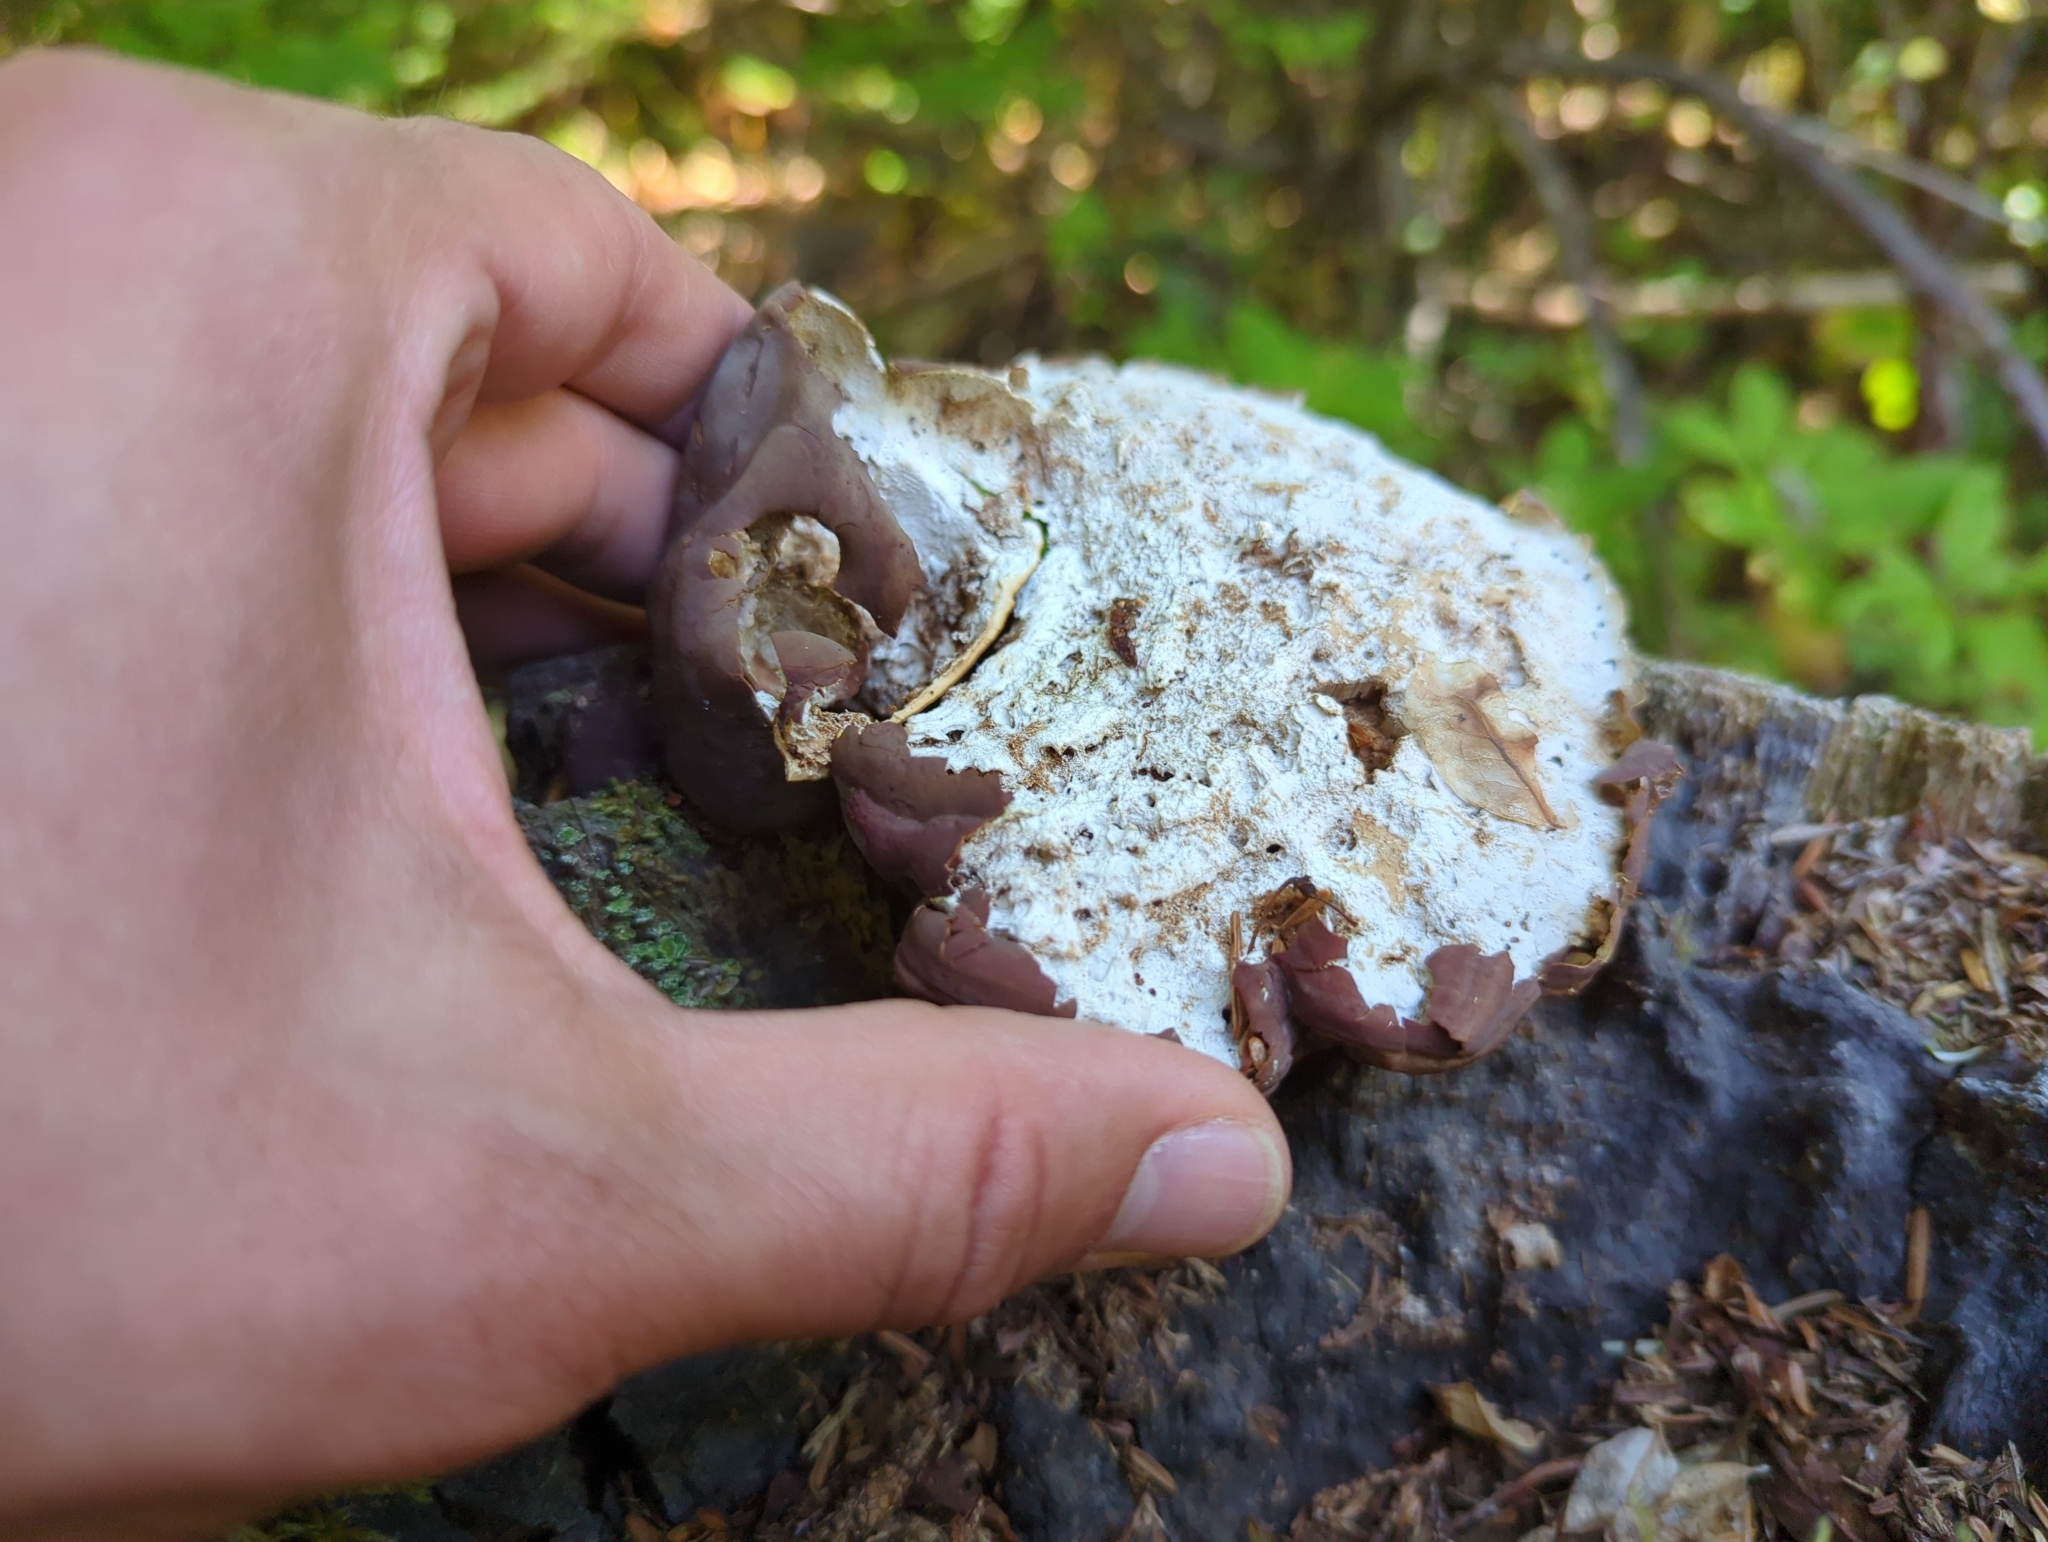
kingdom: Fungi
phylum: Basidiomycota
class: Agaricomycetes
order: Polyporales
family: Polyporaceae
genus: Ganoderma
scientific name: Ganoderma oregonense
